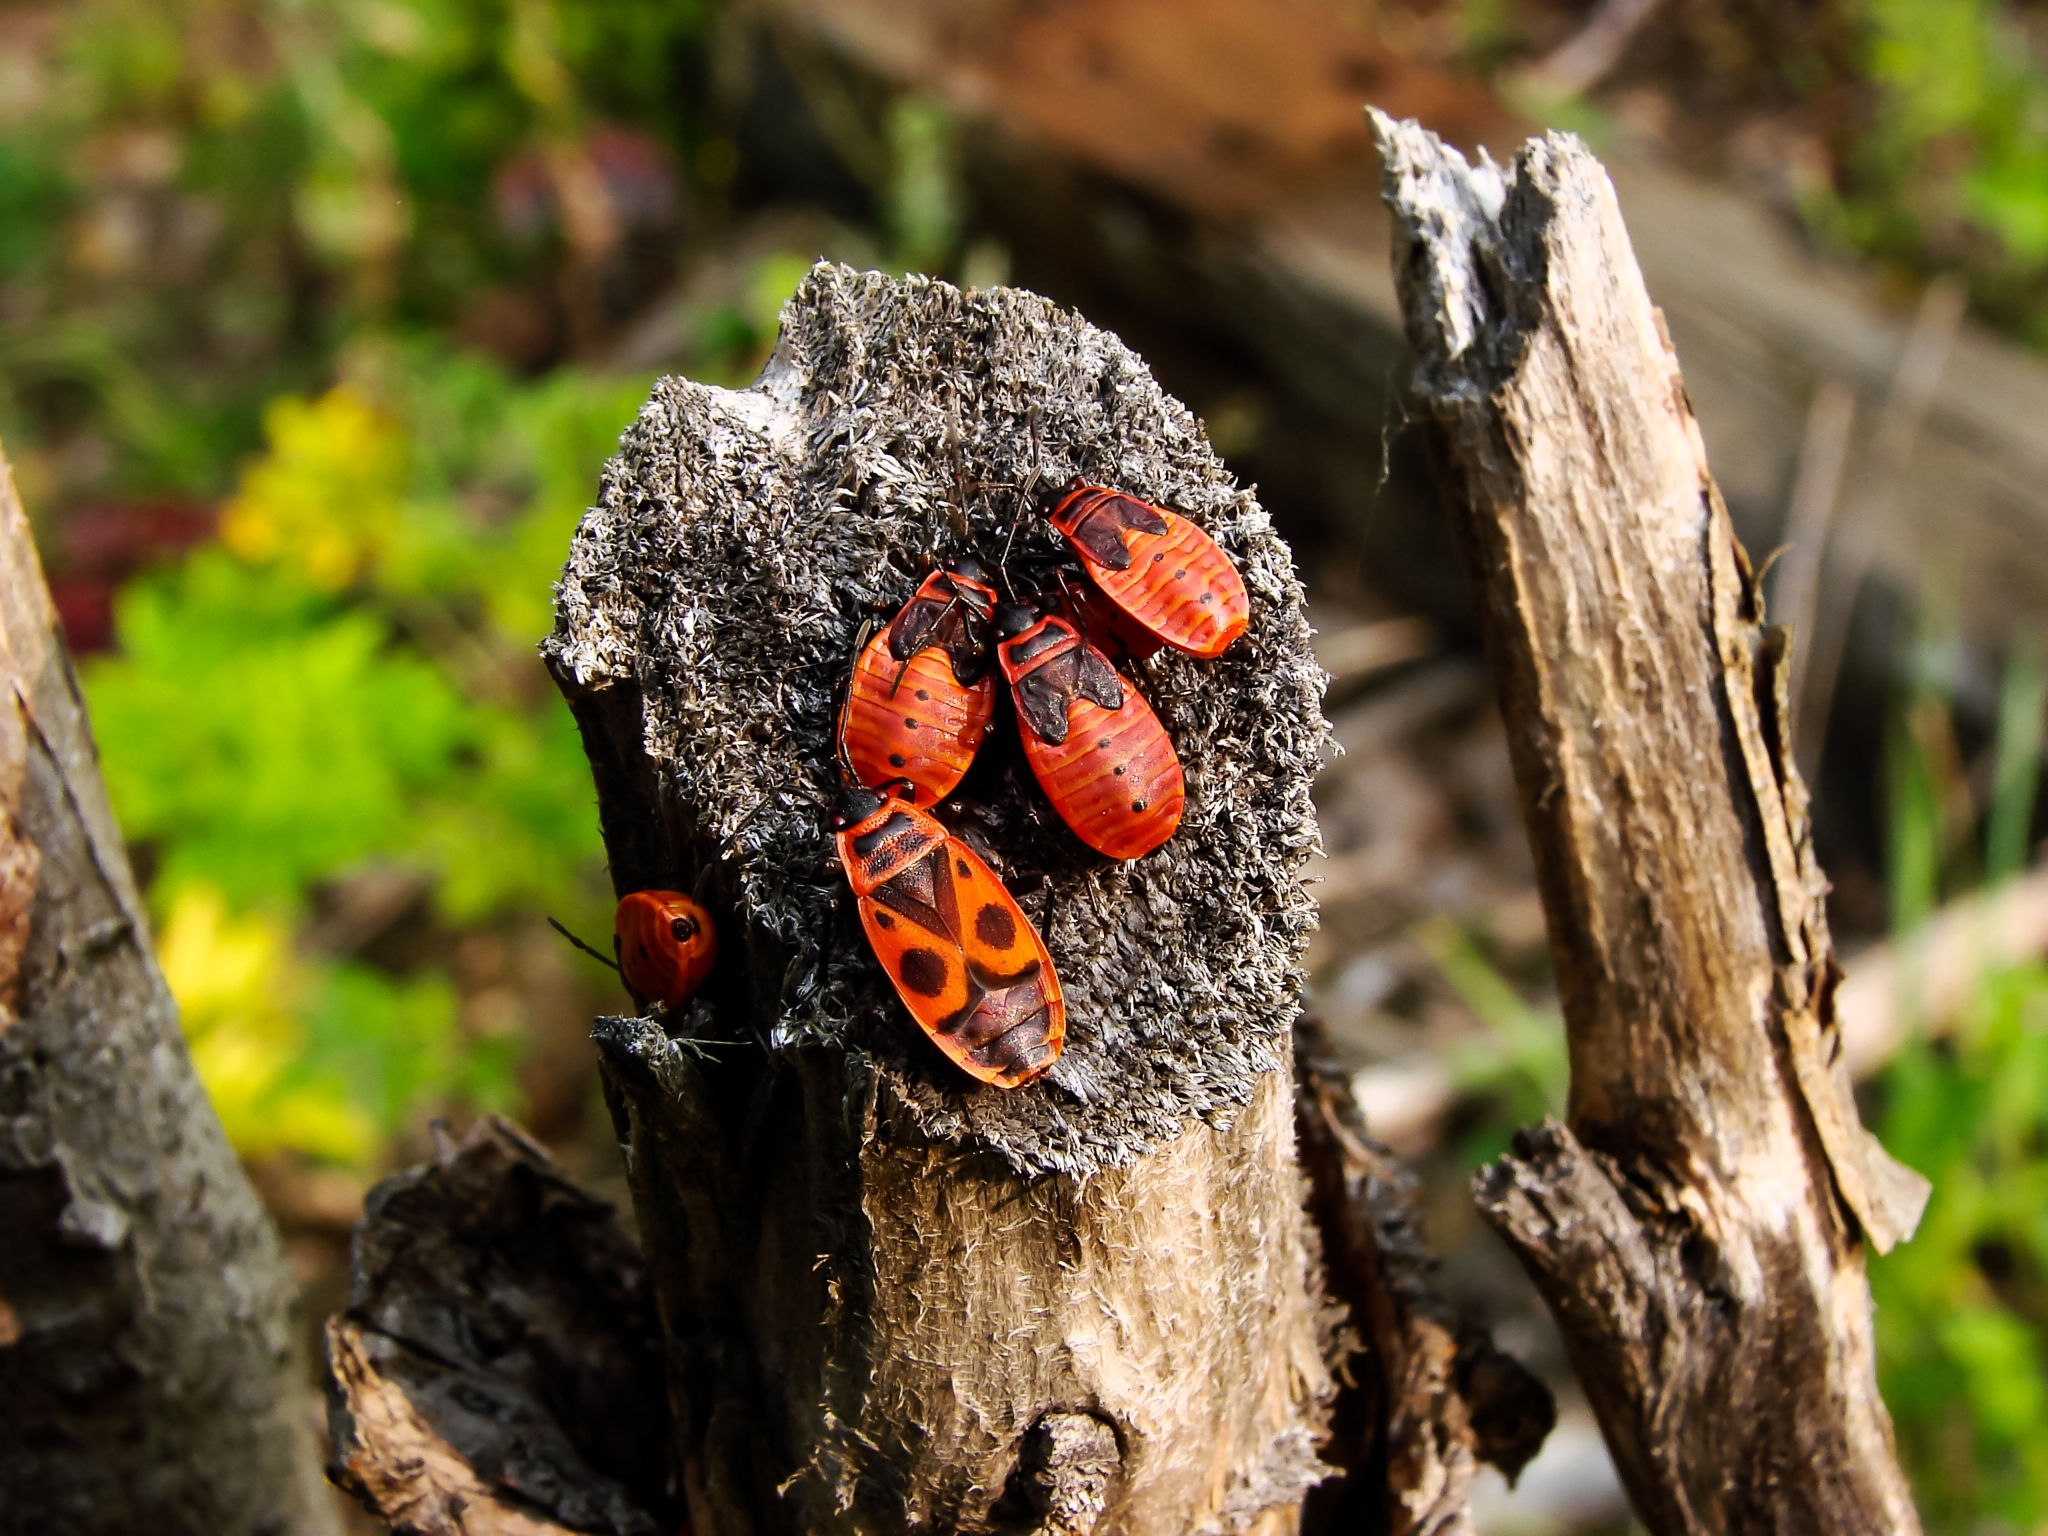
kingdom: Animalia
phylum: Arthropoda
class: Insecta
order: Hemiptera
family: Pyrrhocoridae
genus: Pyrrhocoris
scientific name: Pyrrhocoris apterus
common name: Firebug
